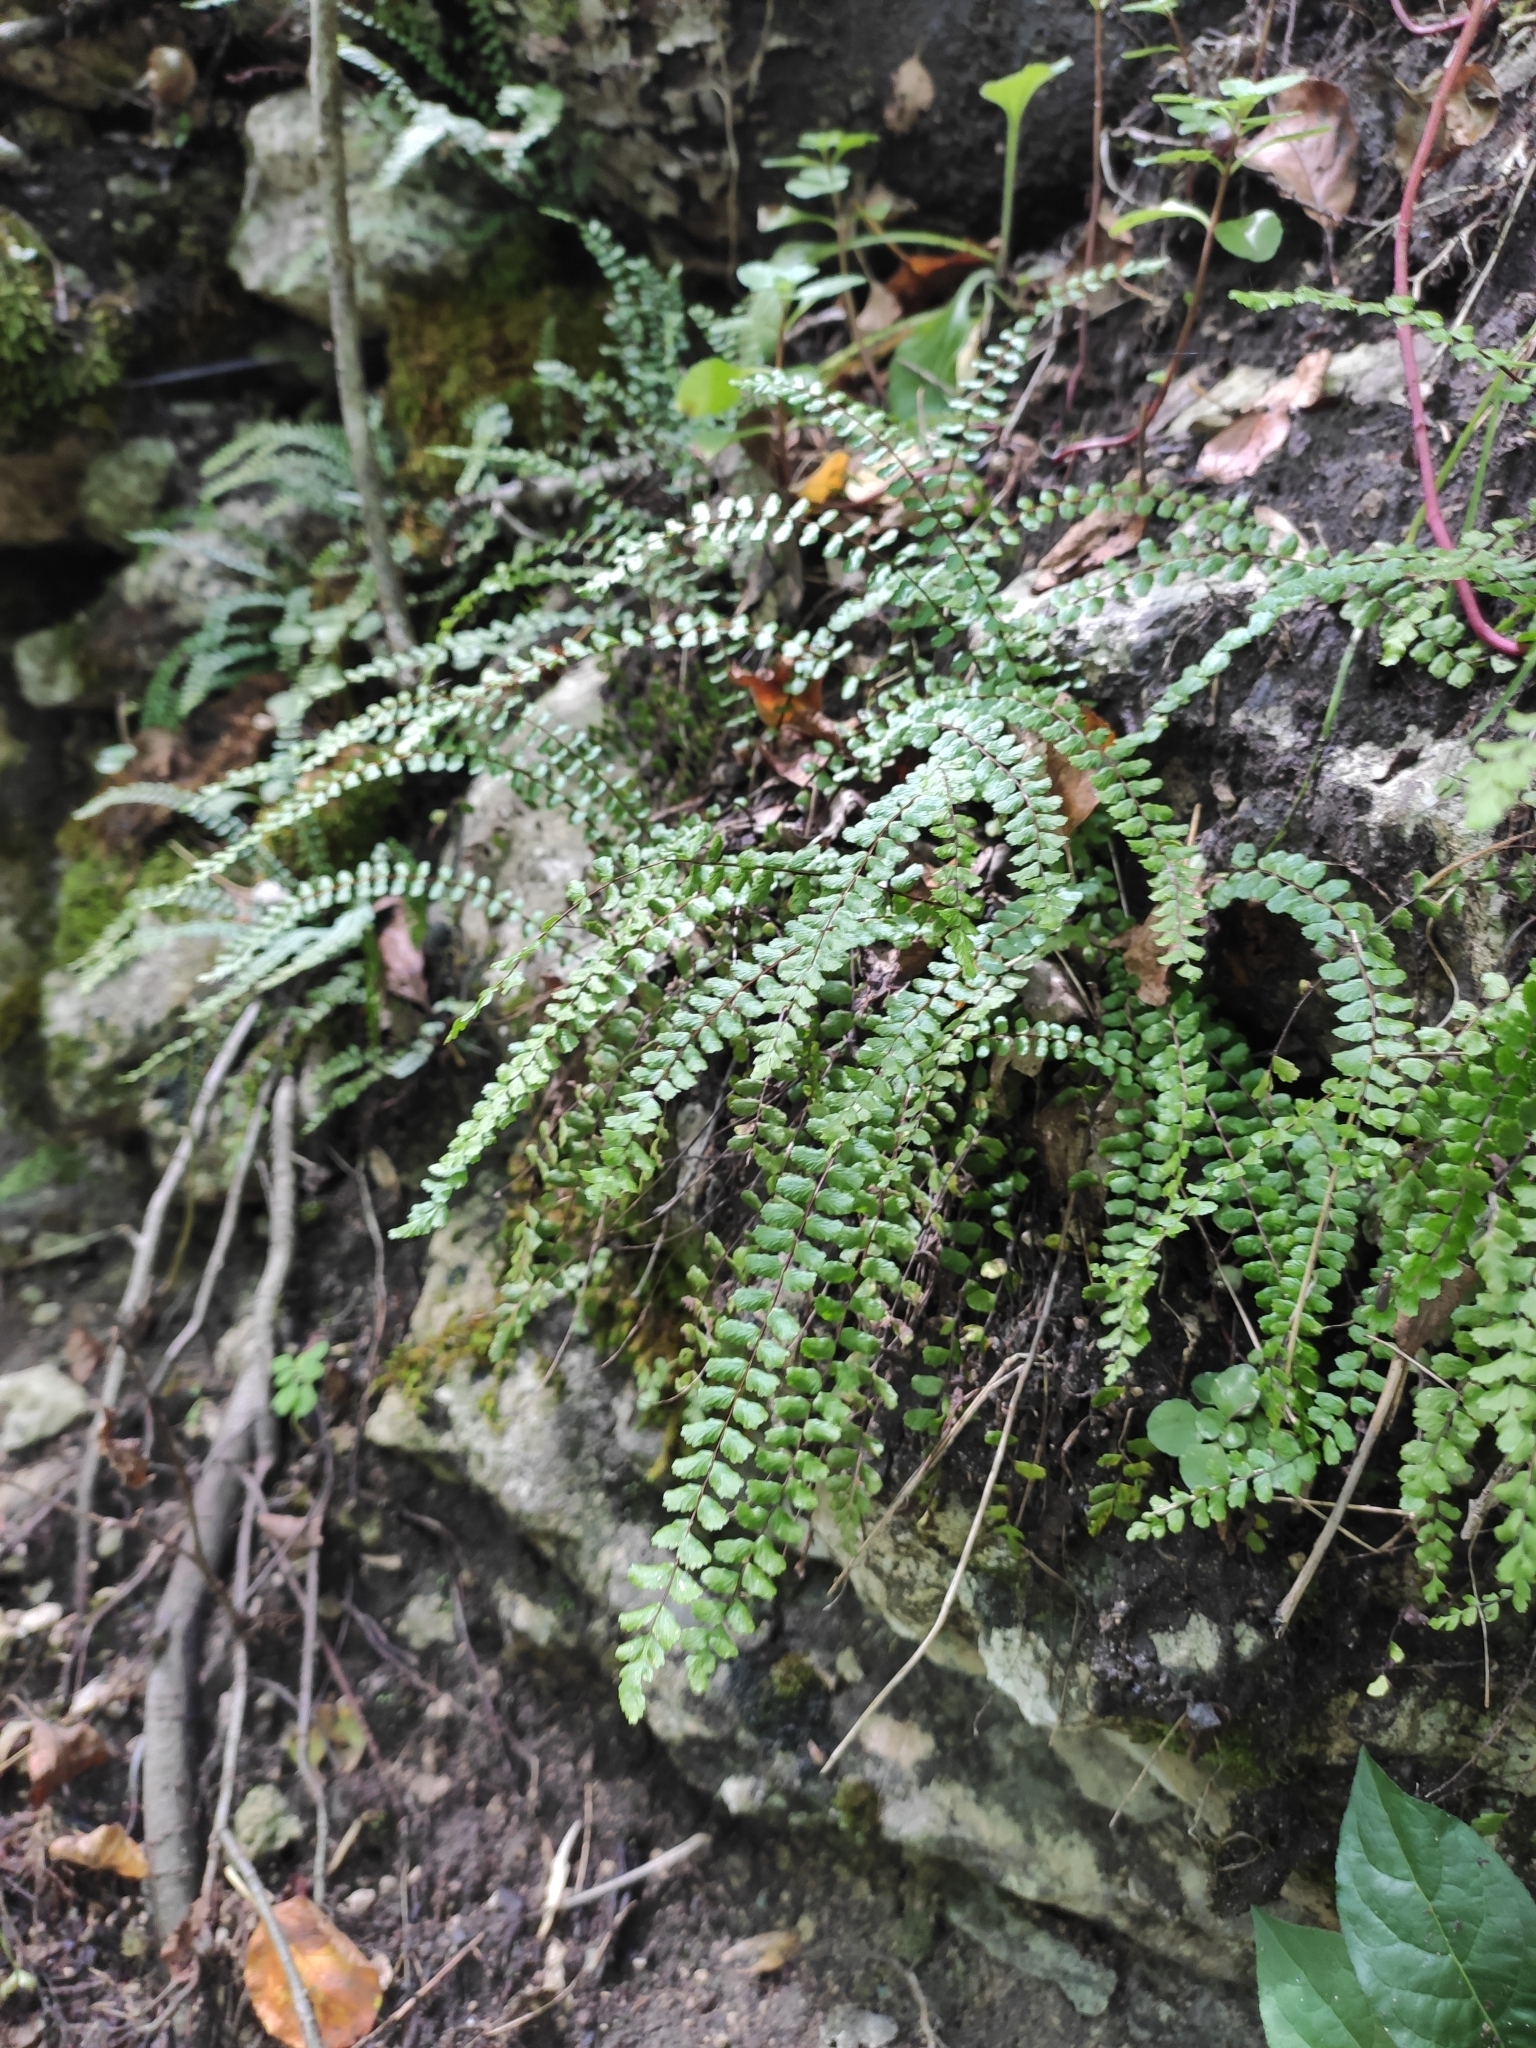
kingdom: Plantae
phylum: Tracheophyta
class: Polypodiopsida
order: Polypodiales
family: Aspleniaceae
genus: Asplenium
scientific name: Asplenium trichomanes
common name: Maidenhair spleenwort
